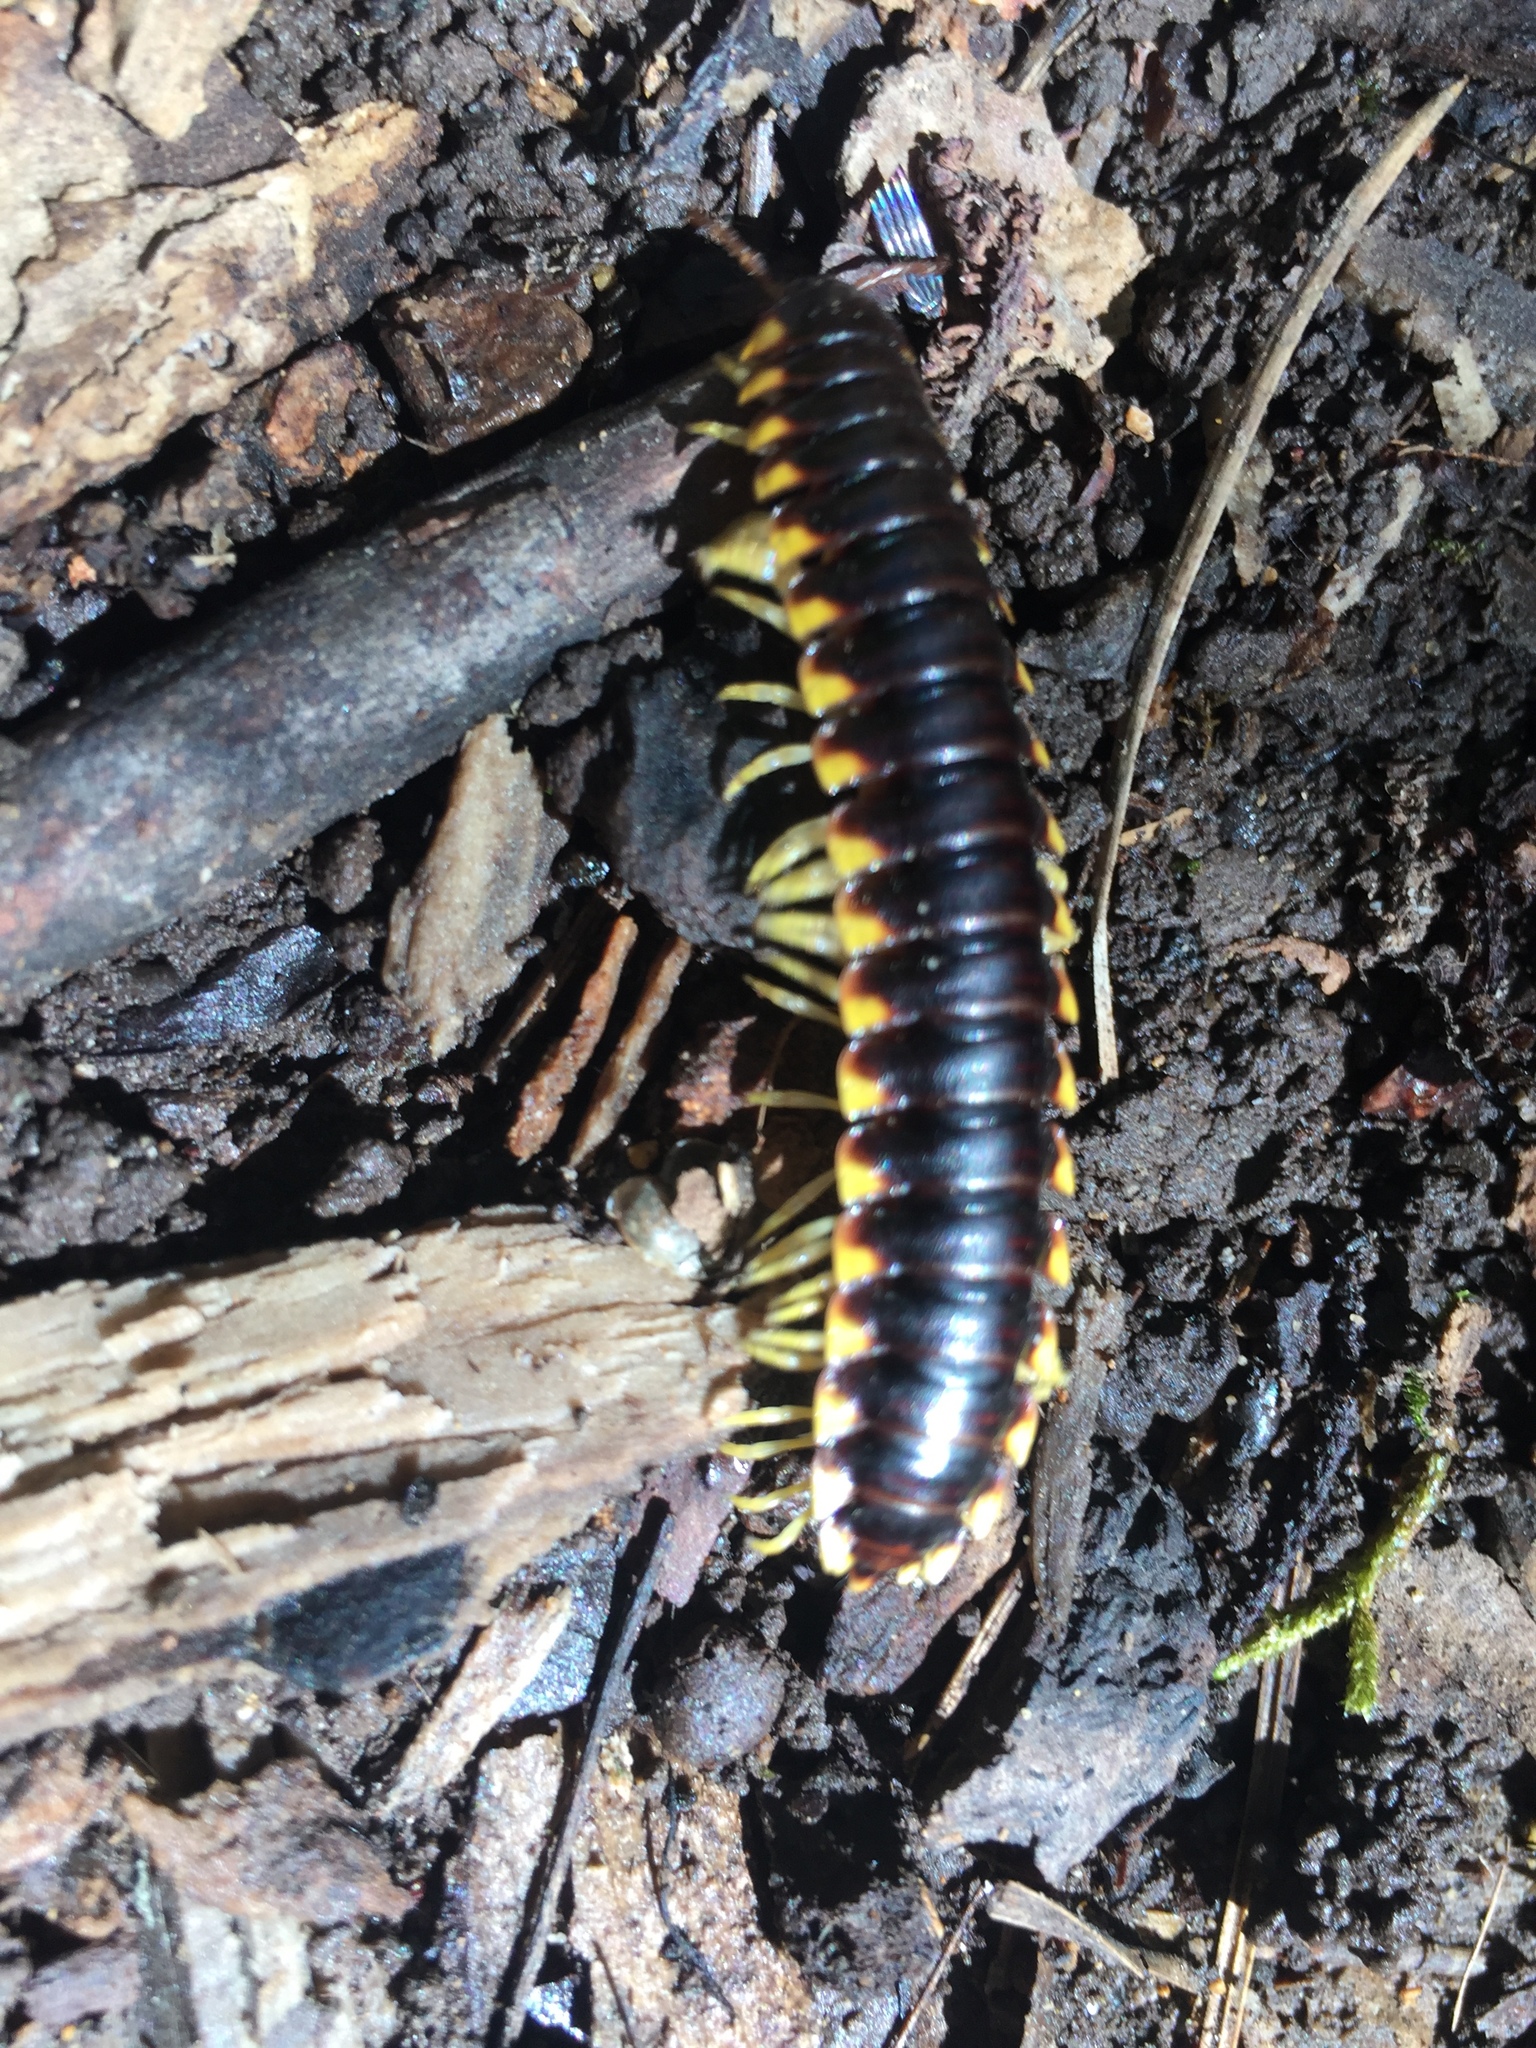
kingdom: Animalia
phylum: Arthropoda
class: Diplopoda
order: Polydesmida
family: Xystodesmidae
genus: Apheloria
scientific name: Apheloria tigana
